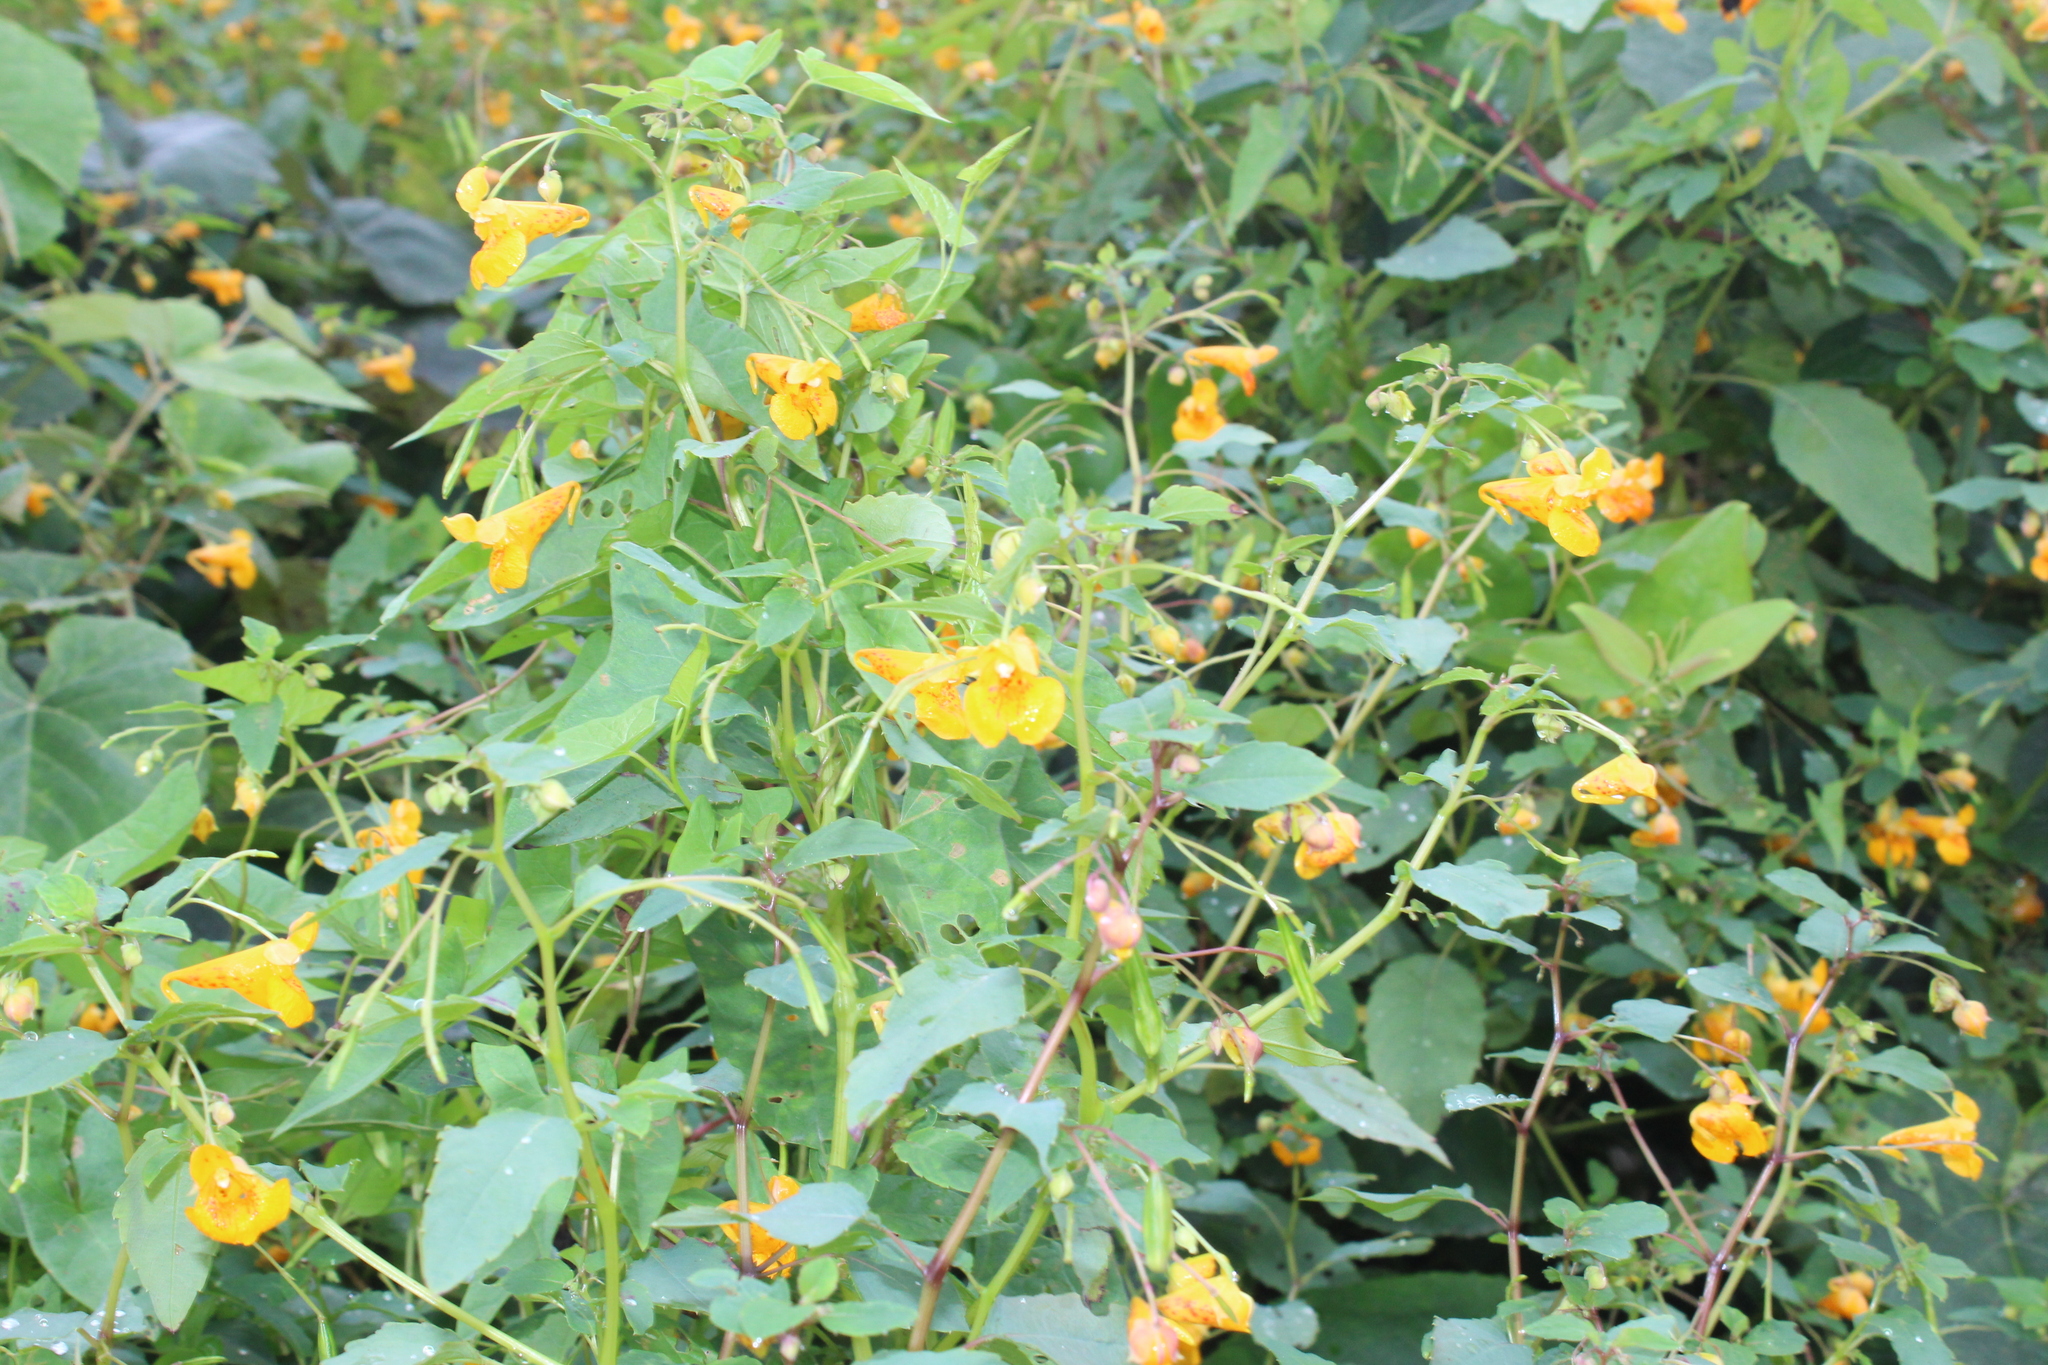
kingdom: Plantae
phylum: Tracheophyta
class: Magnoliopsida
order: Ericales
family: Balsaminaceae
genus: Impatiens
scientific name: Impatiens capensis
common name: Orange balsam
